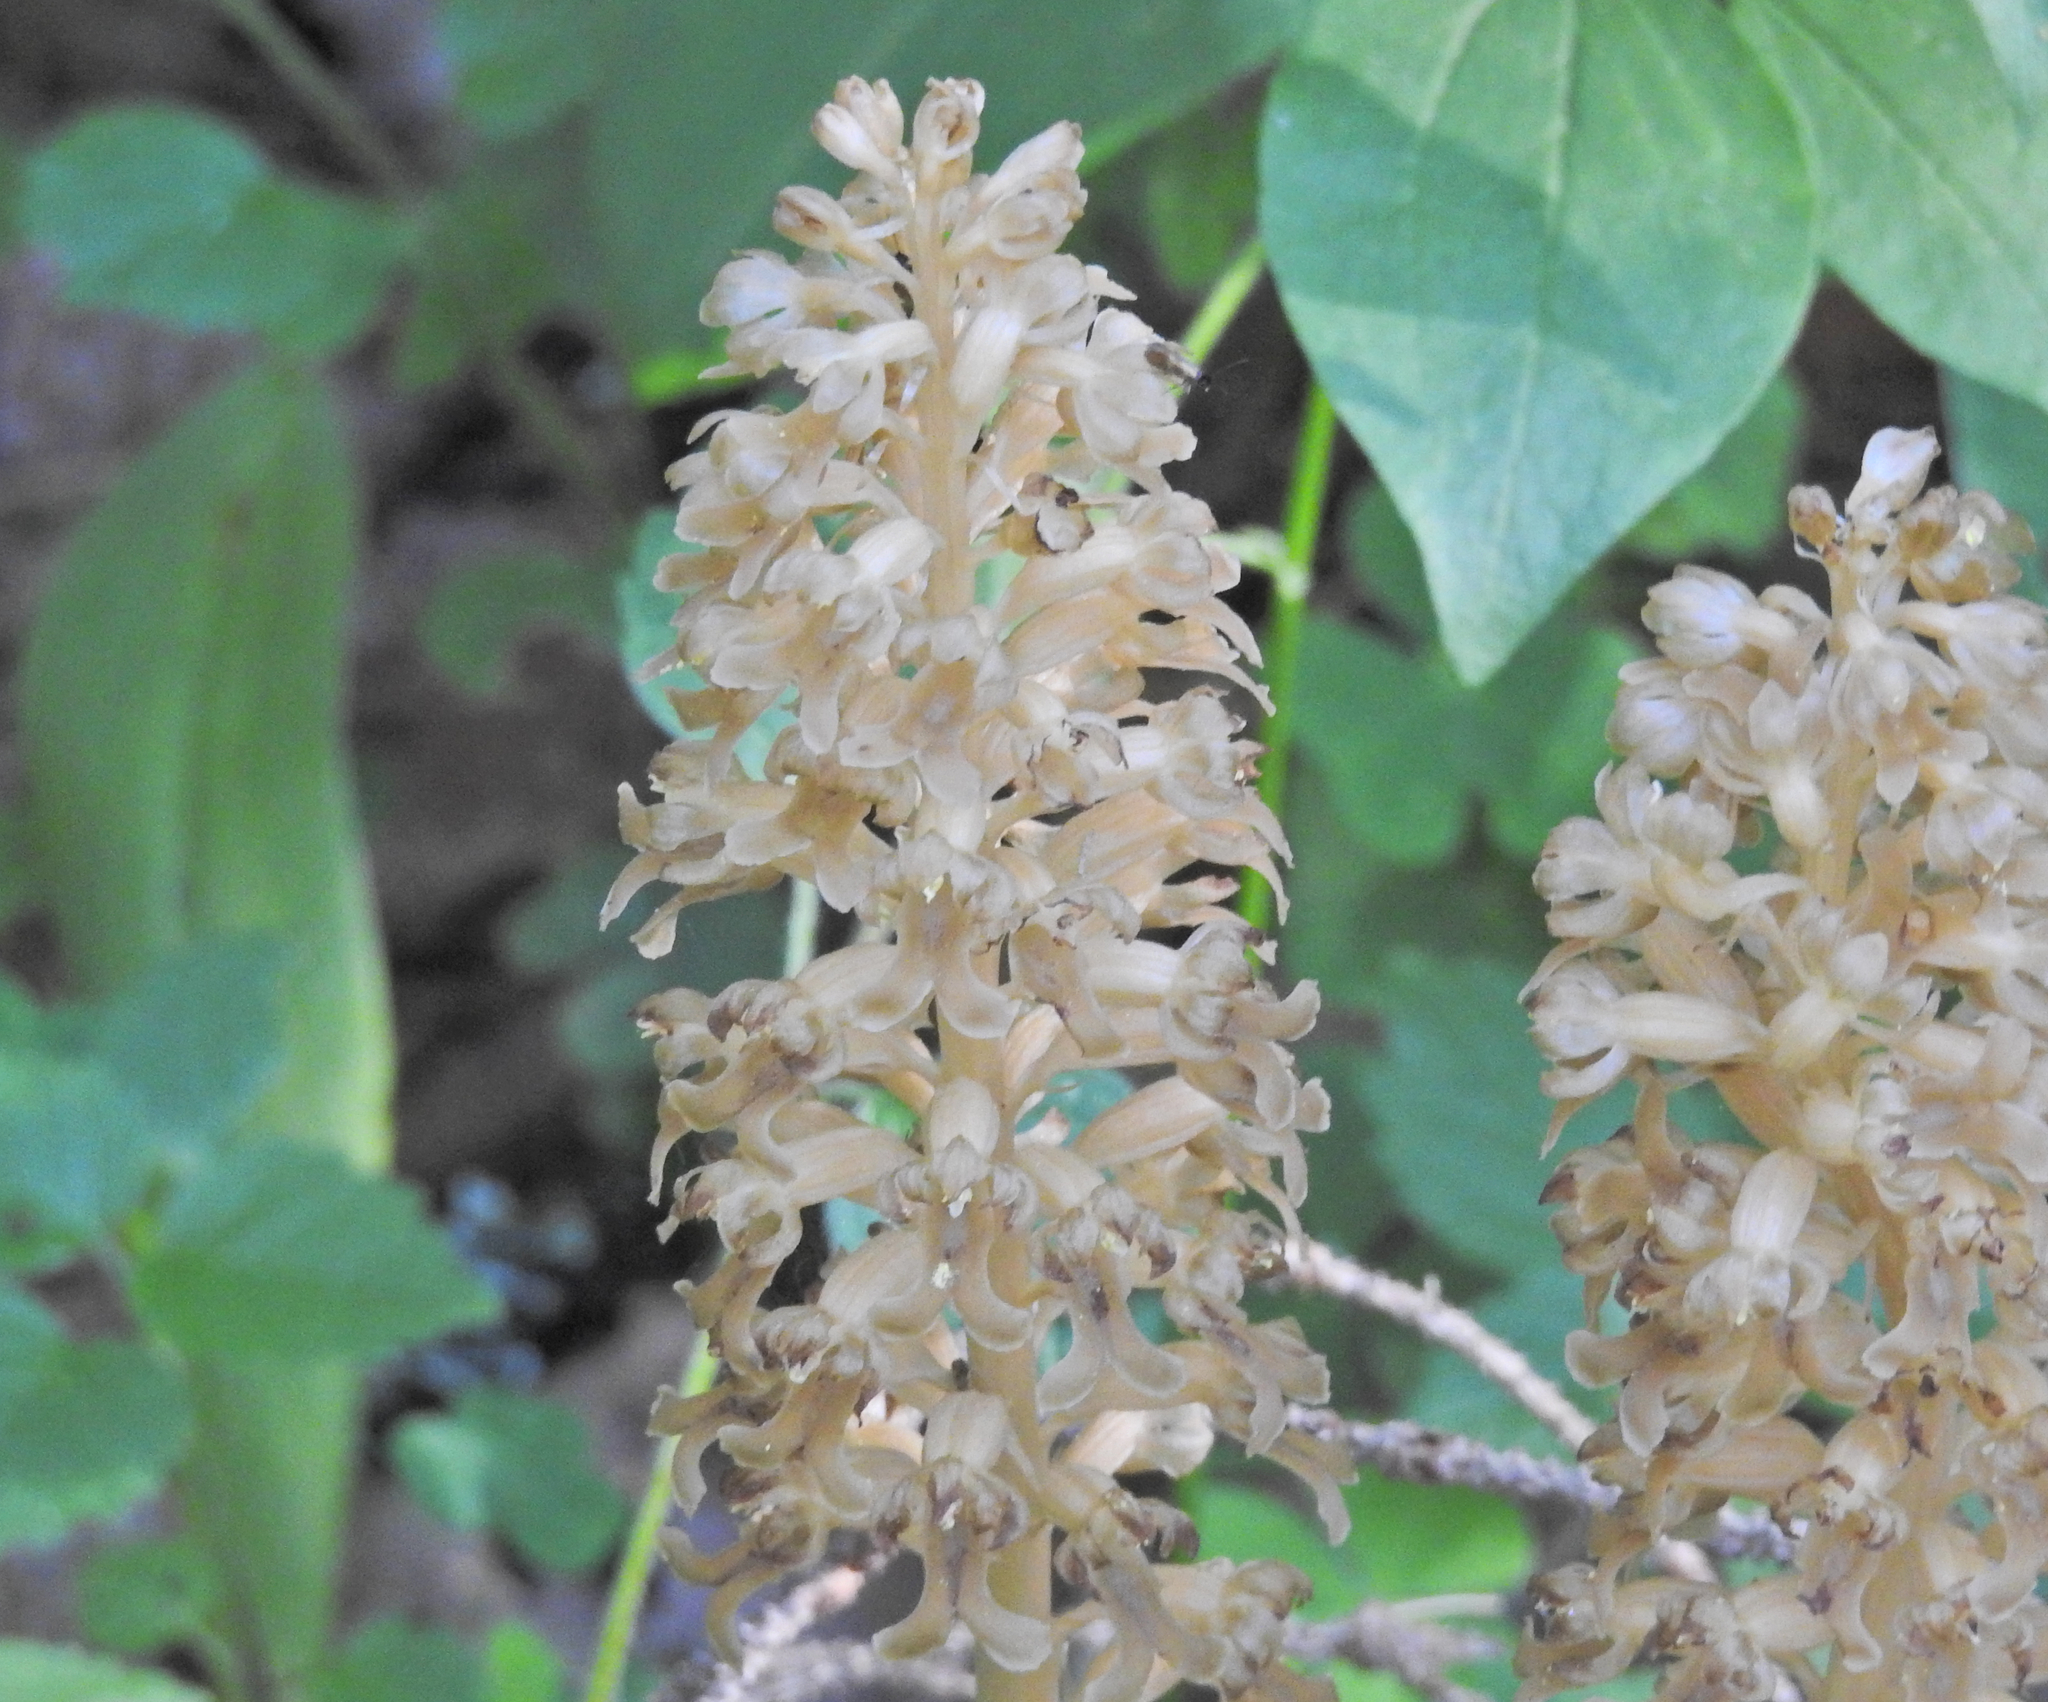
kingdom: Plantae
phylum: Tracheophyta
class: Liliopsida
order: Asparagales
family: Orchidaceae
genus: Neottia
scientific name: Neottia nidus-avis
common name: Bird's-nest orchid
